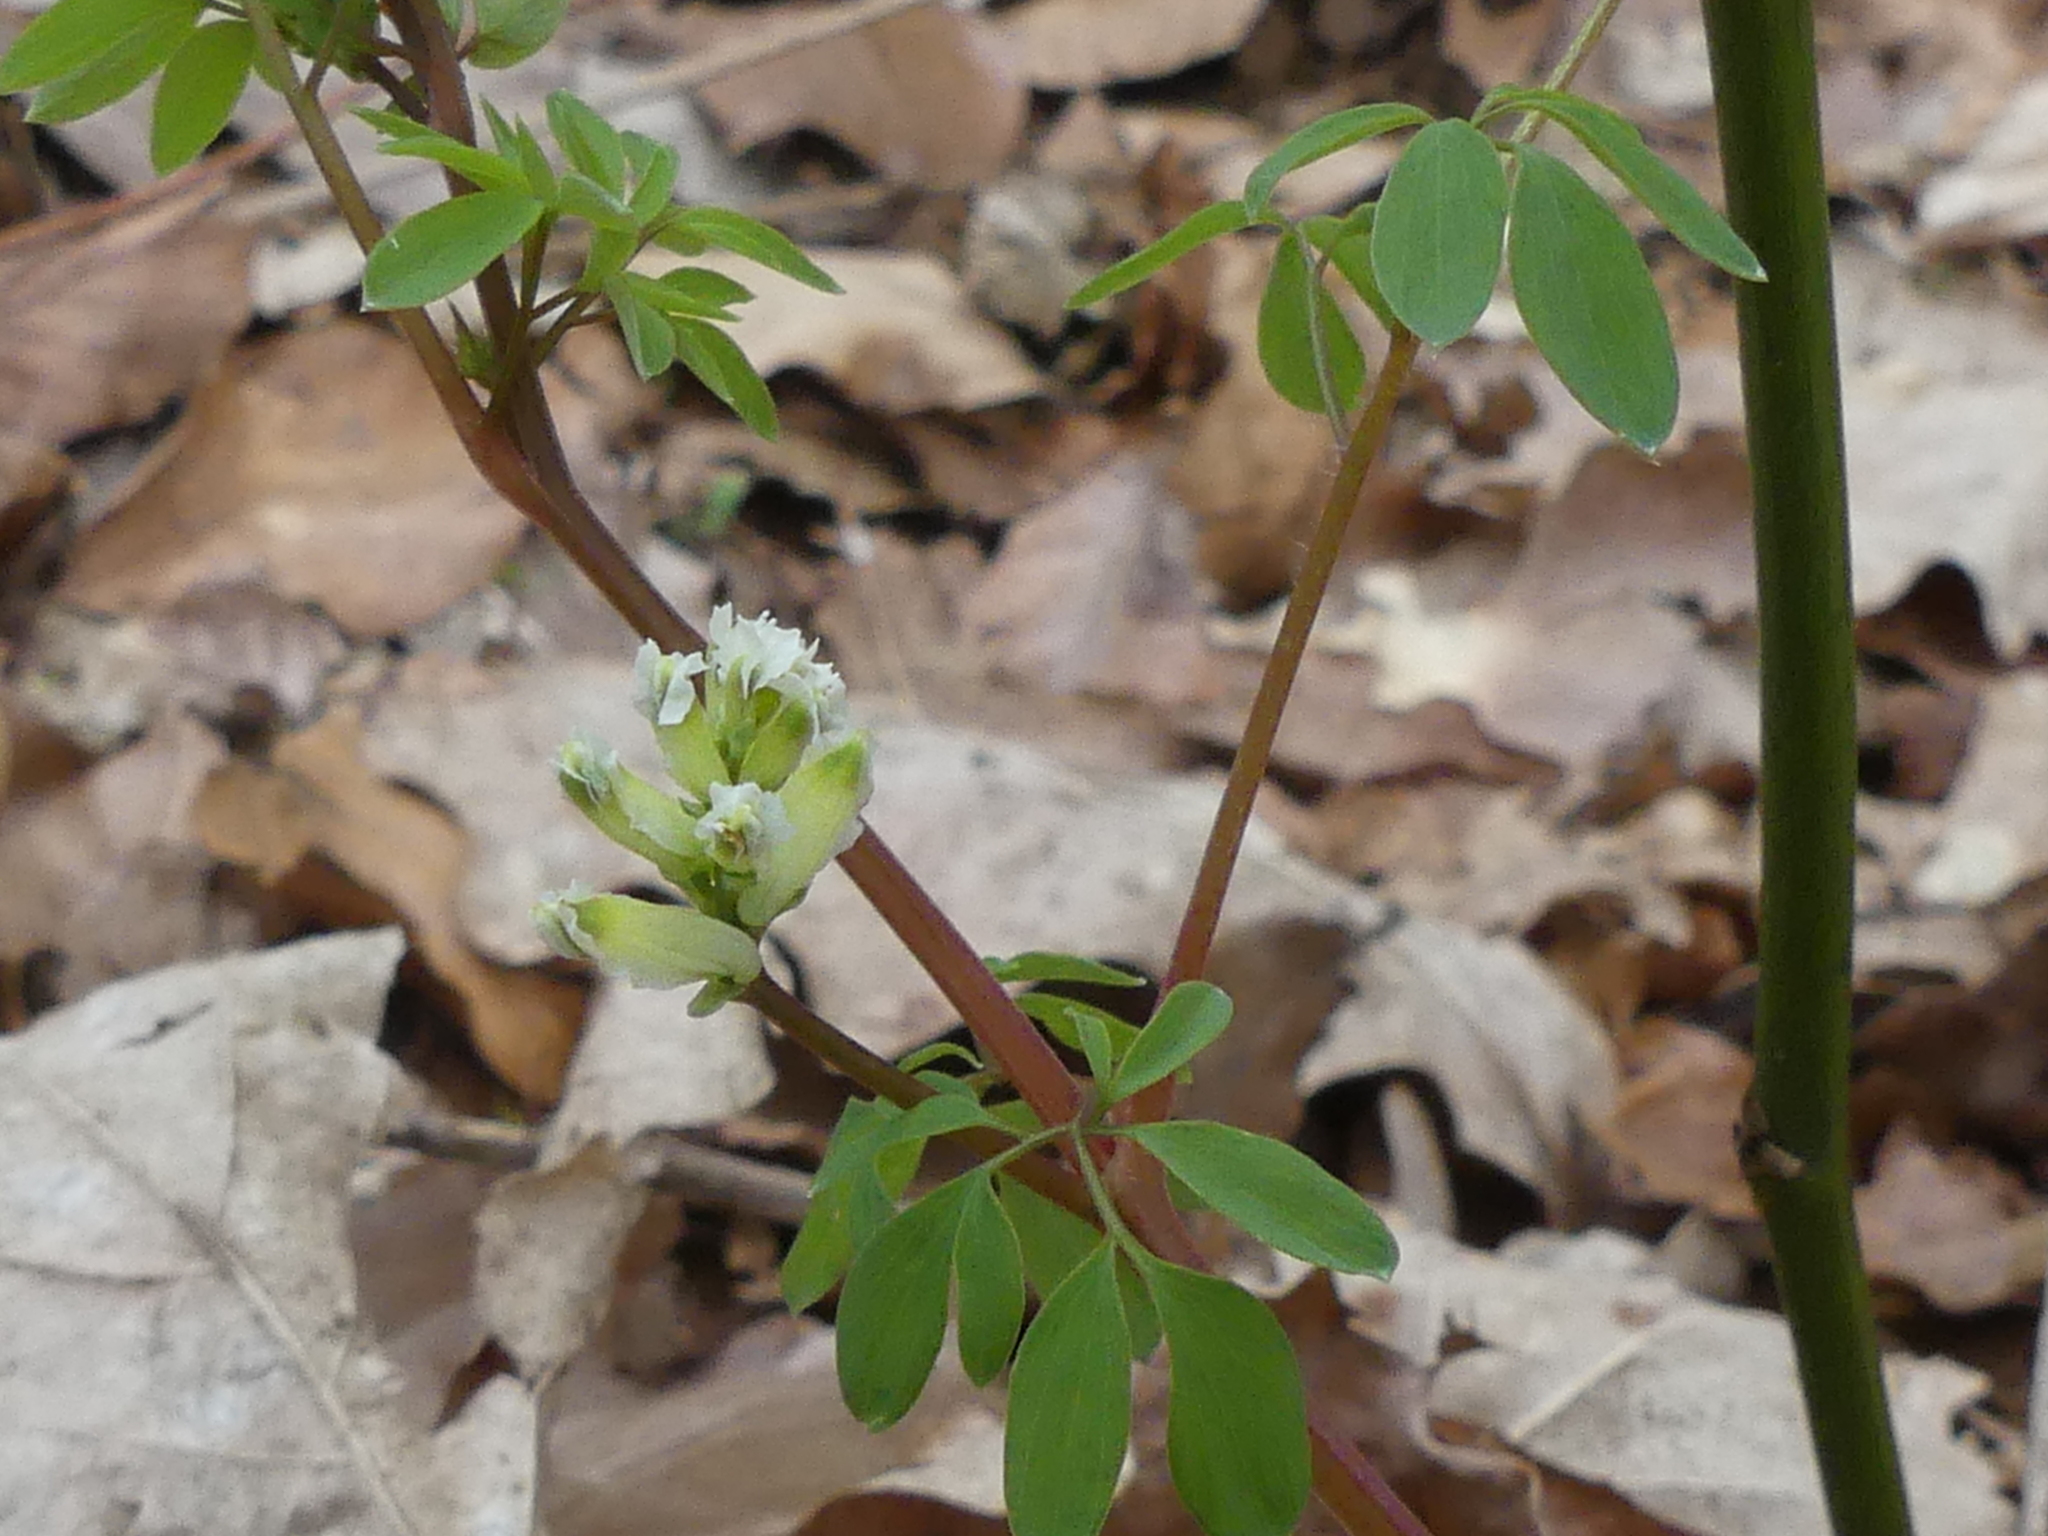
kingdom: Plantae
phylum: Tracheophyta
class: Magnoliopsida
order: Ranunculales
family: Papaveraceae
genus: Ceratocapnos
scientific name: Ceratocapnos claviculata
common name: Climbing corydalis
